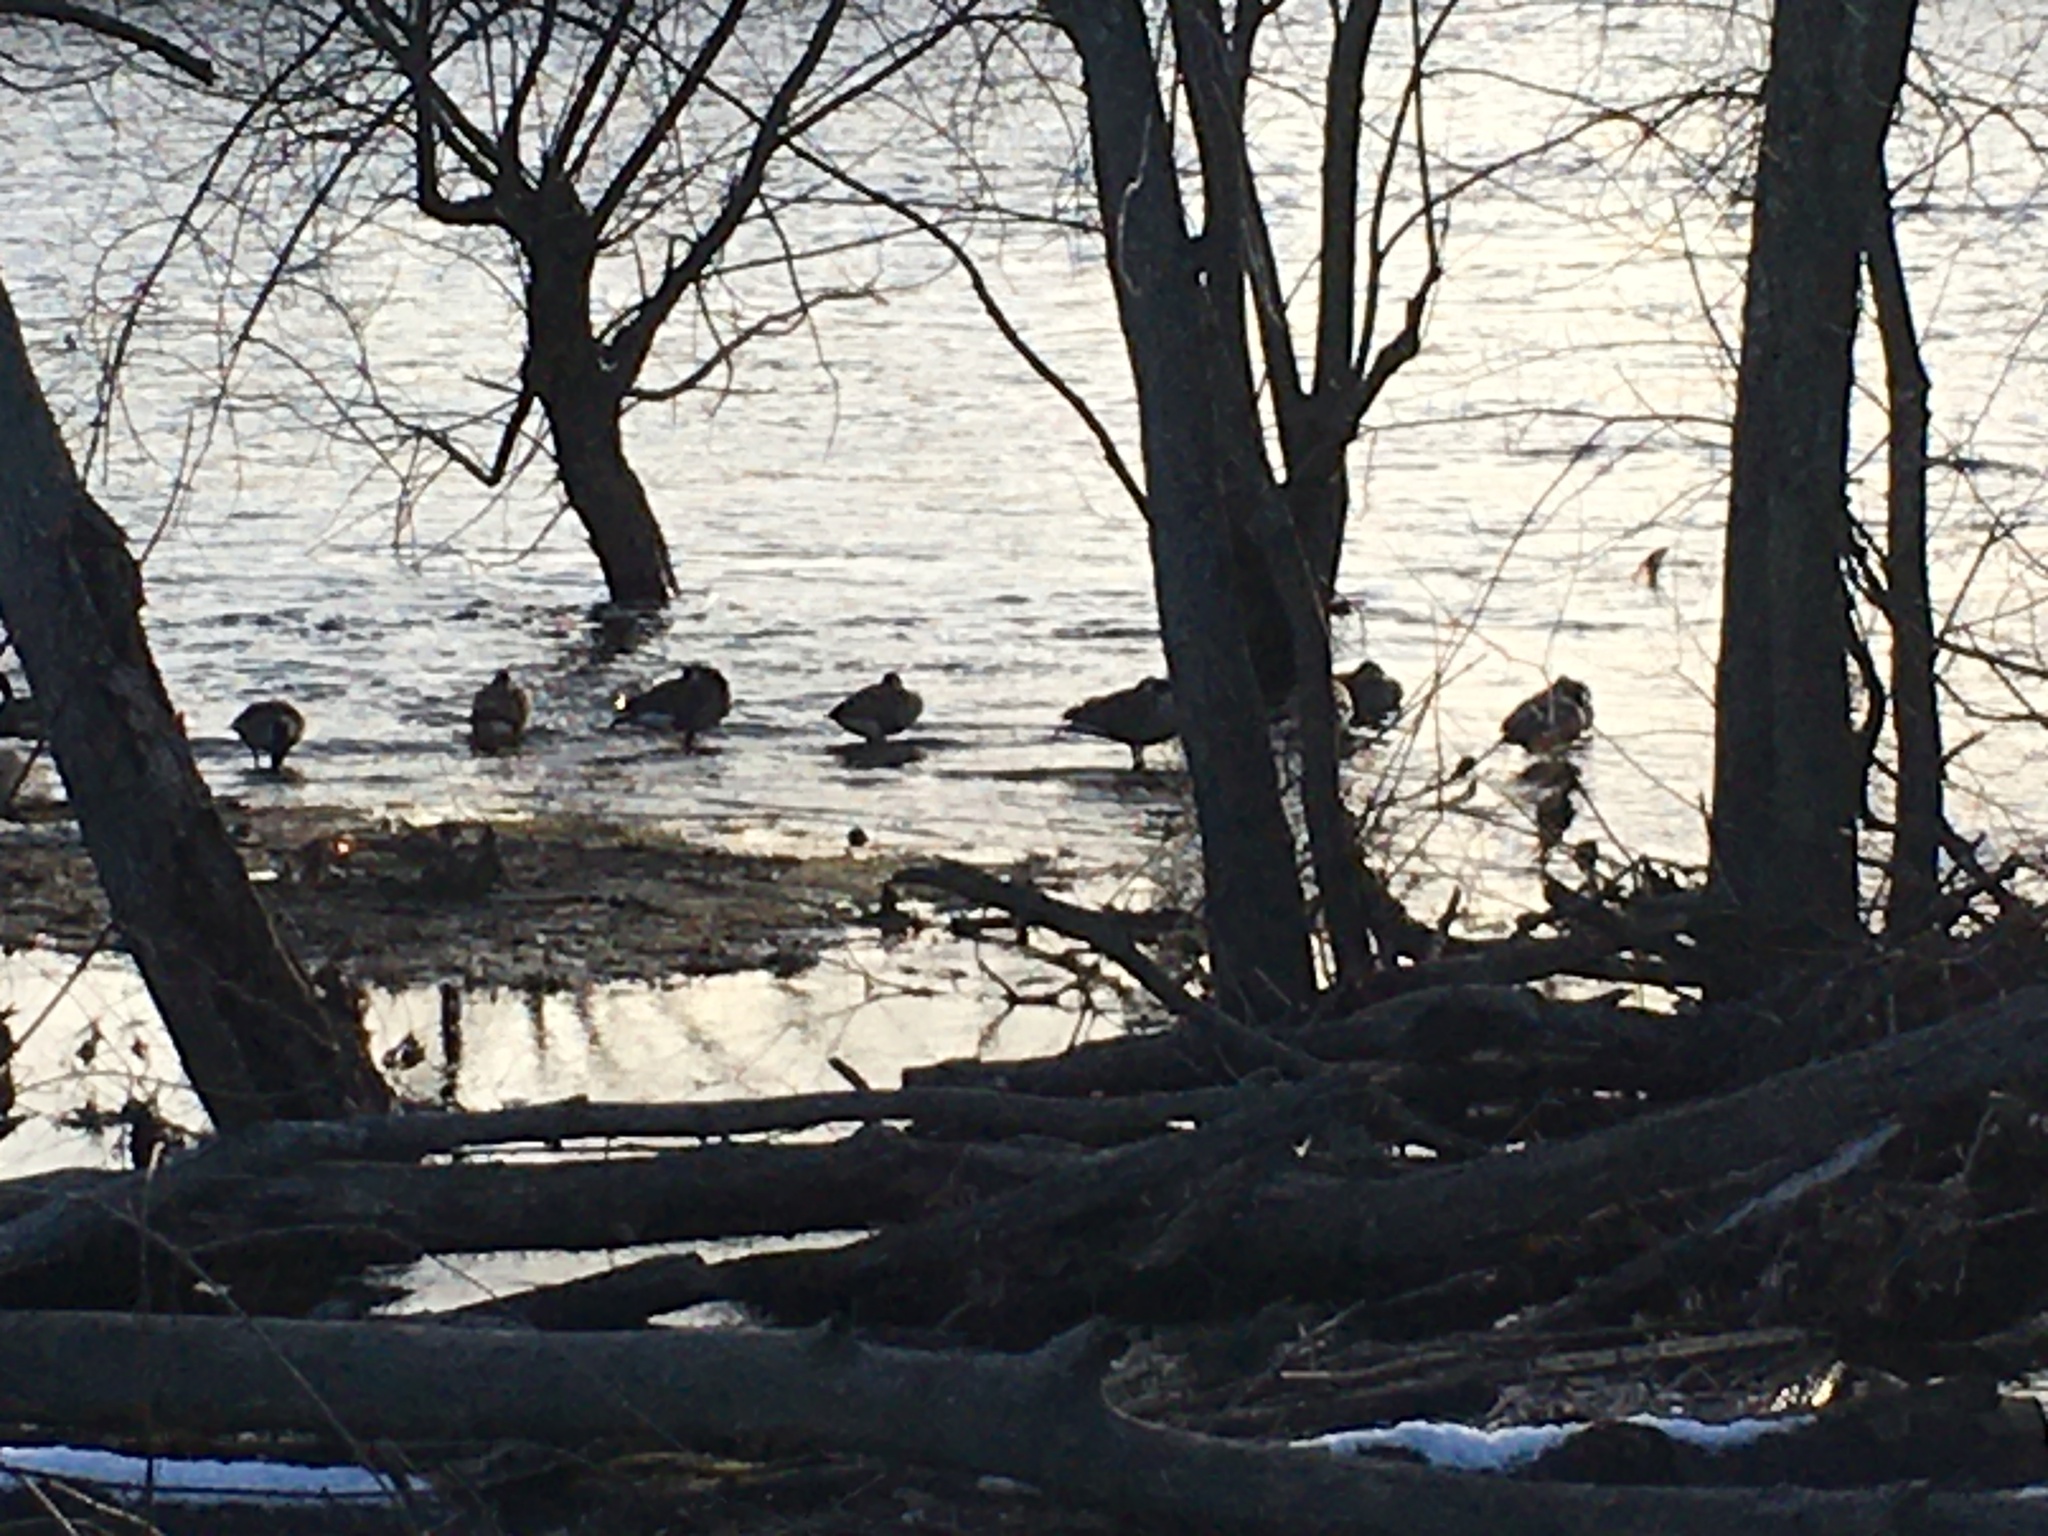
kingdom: Animalia
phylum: Chordata
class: Aves
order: Anseriformes
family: Anatidae
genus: Branta
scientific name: Branta canadensis
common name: Canada goose
